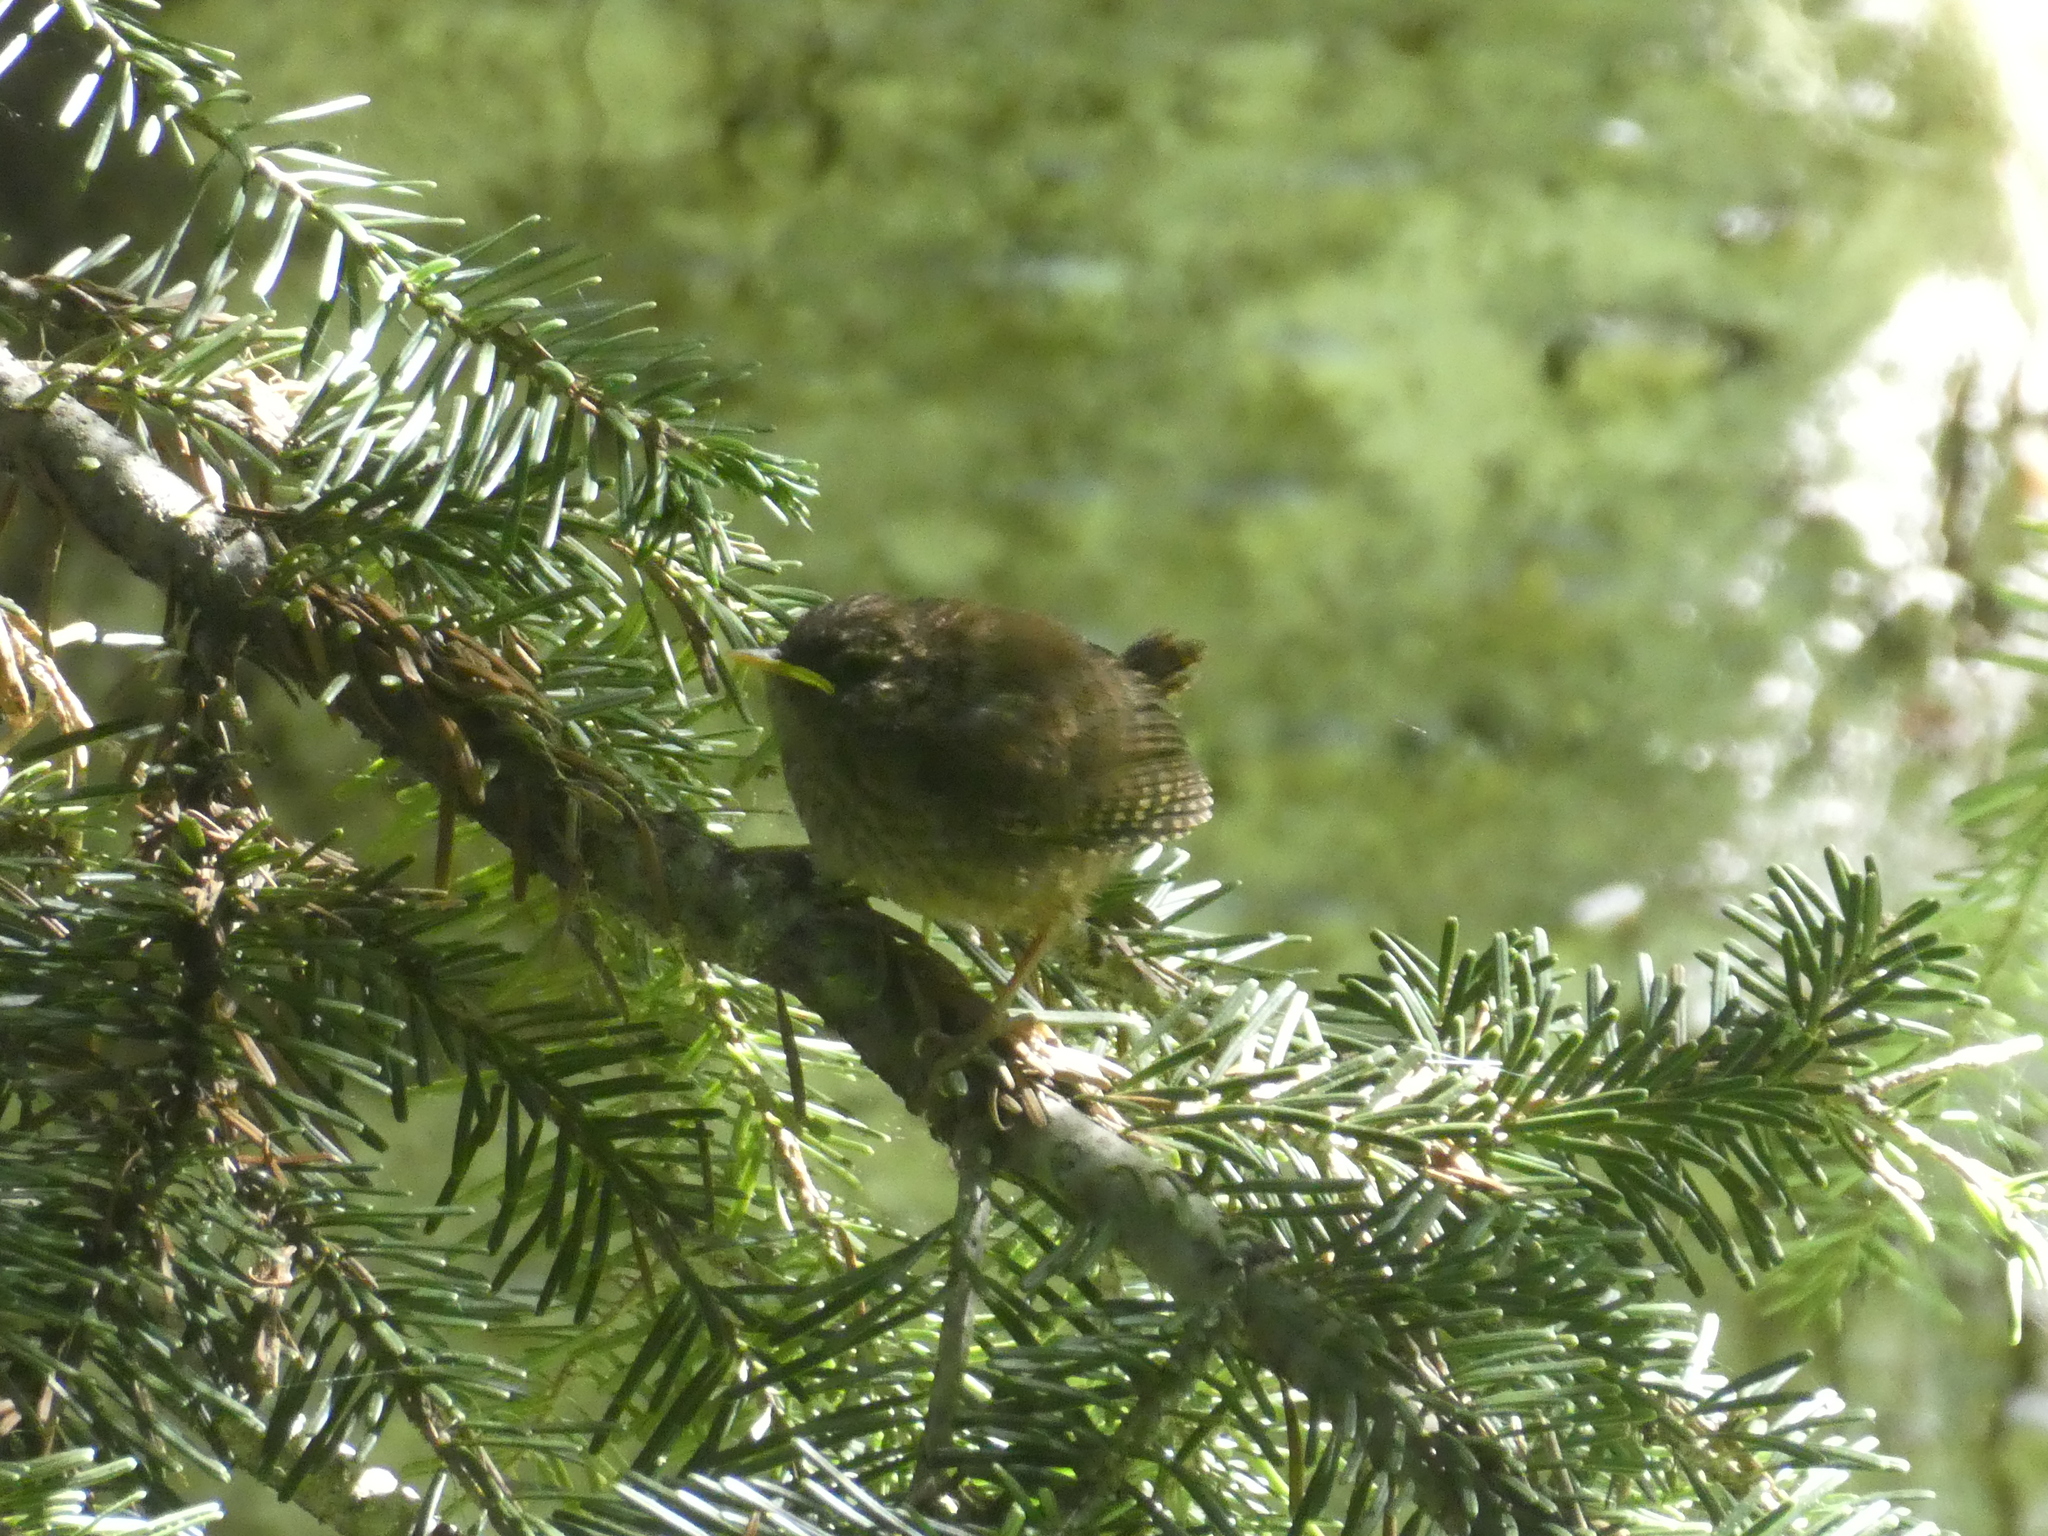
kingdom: Animalia
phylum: Chordata
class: Aves
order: Passeriformes
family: Troglodytidae
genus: Troglodytes
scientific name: Troglodytes pacificus
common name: Pacific wren
